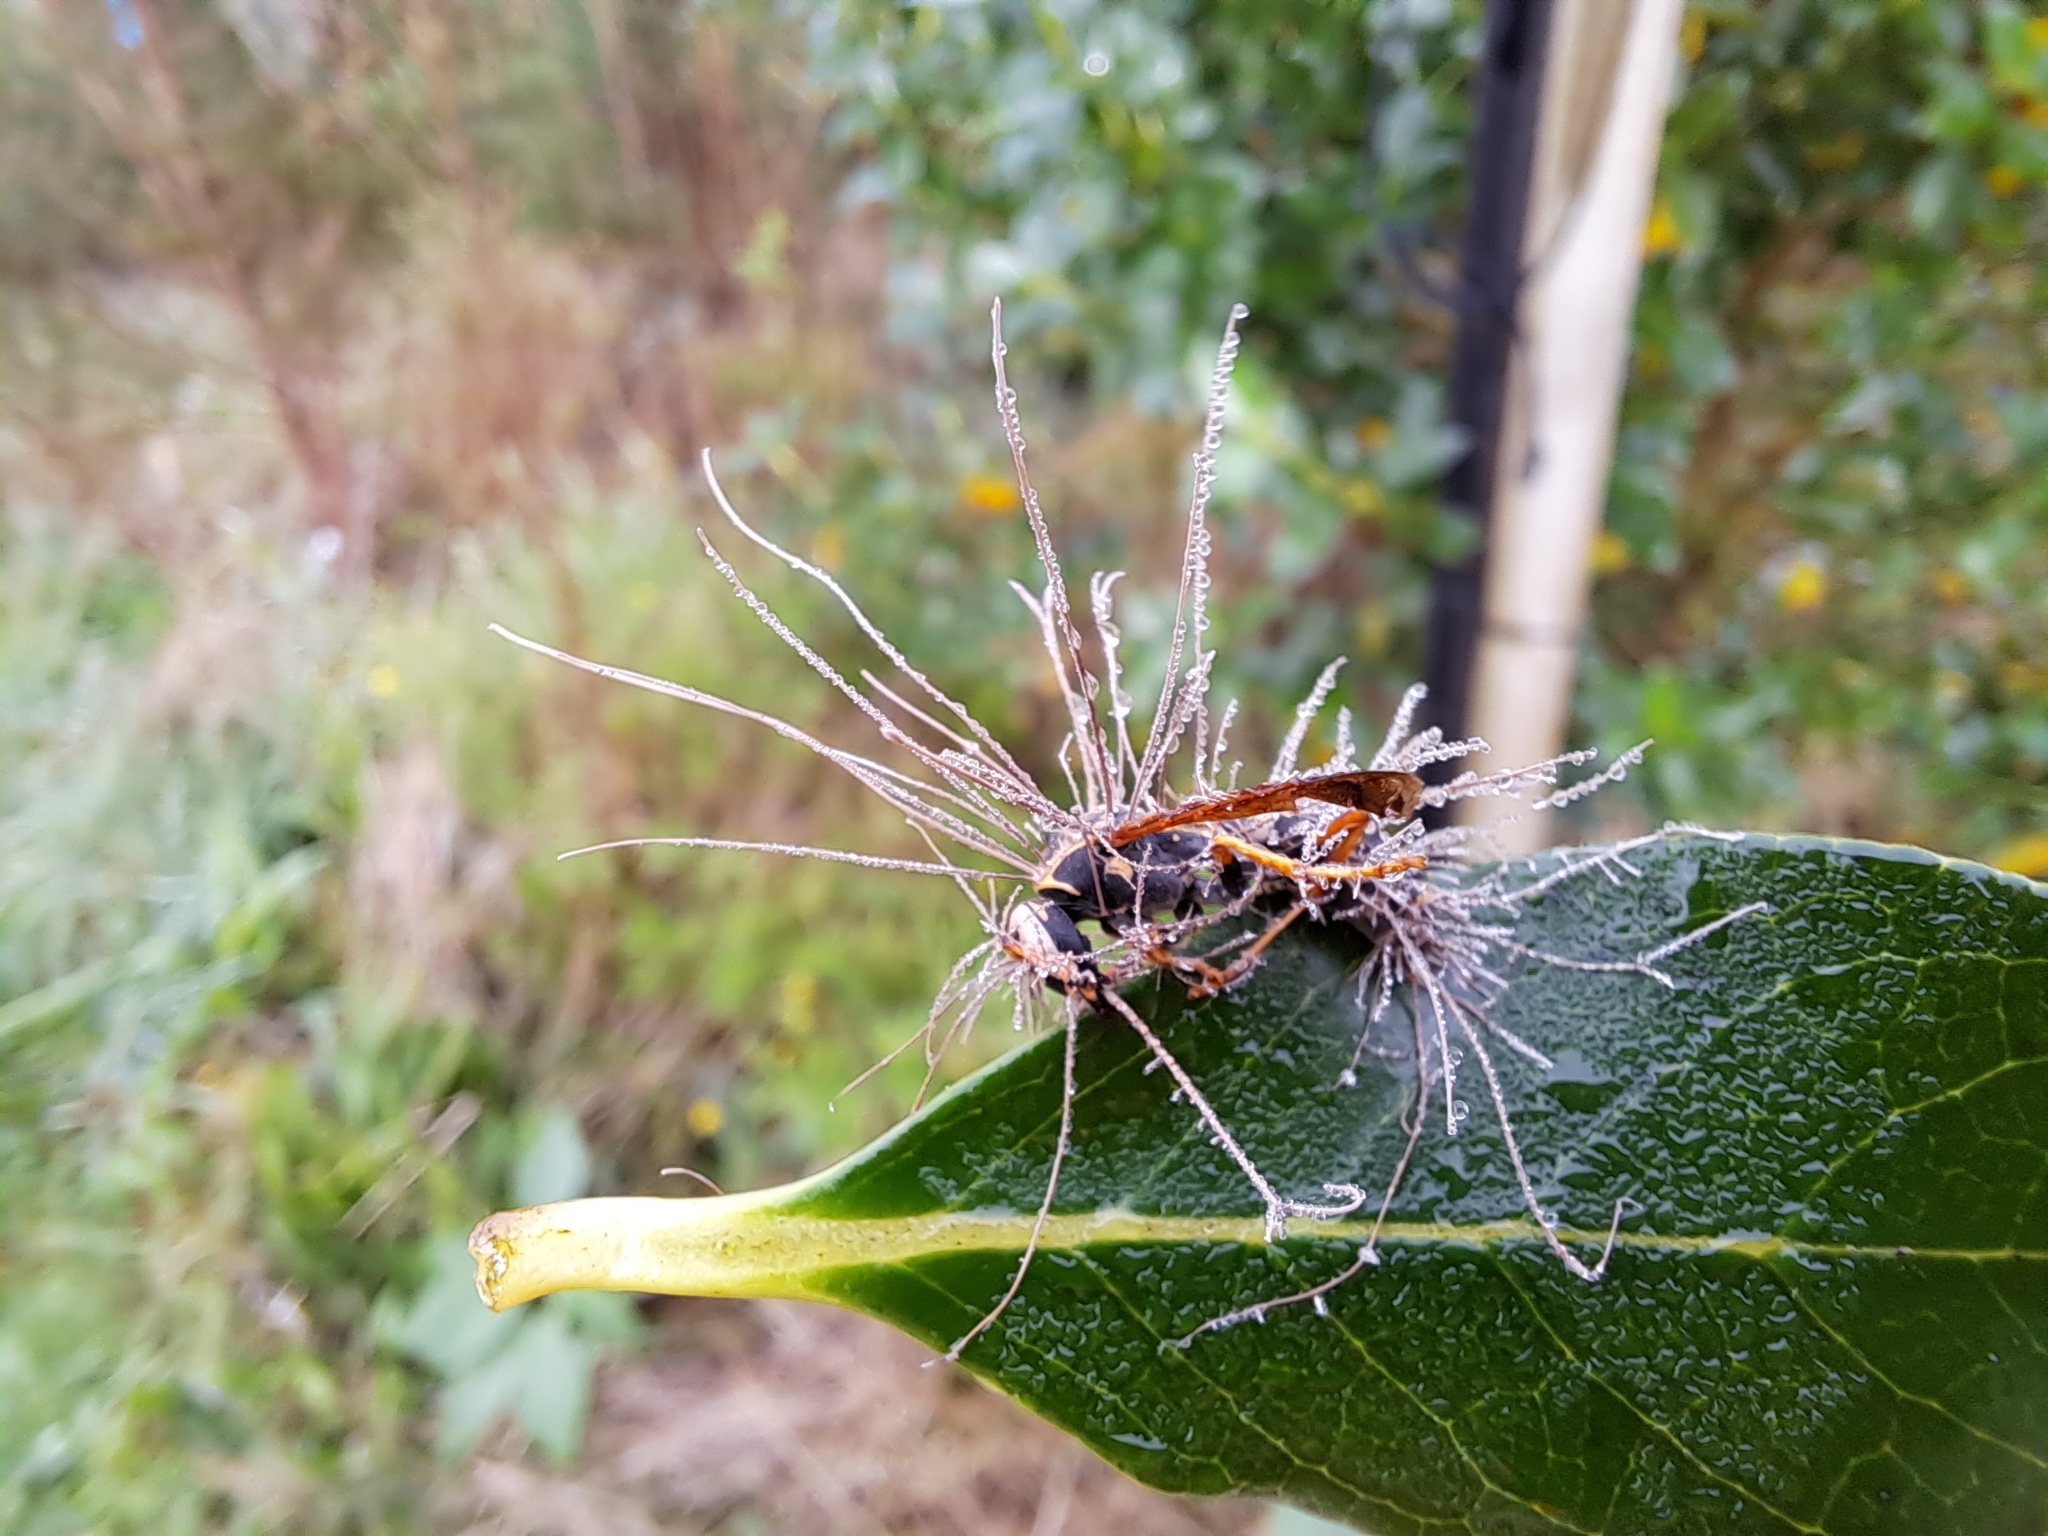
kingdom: Fungi
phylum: Ascomycota
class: Sordariomycetes
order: Hypocreales
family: Ophiocordycipitaceae
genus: Ophiocordyceps
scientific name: Ophiocordyceps humbertii
